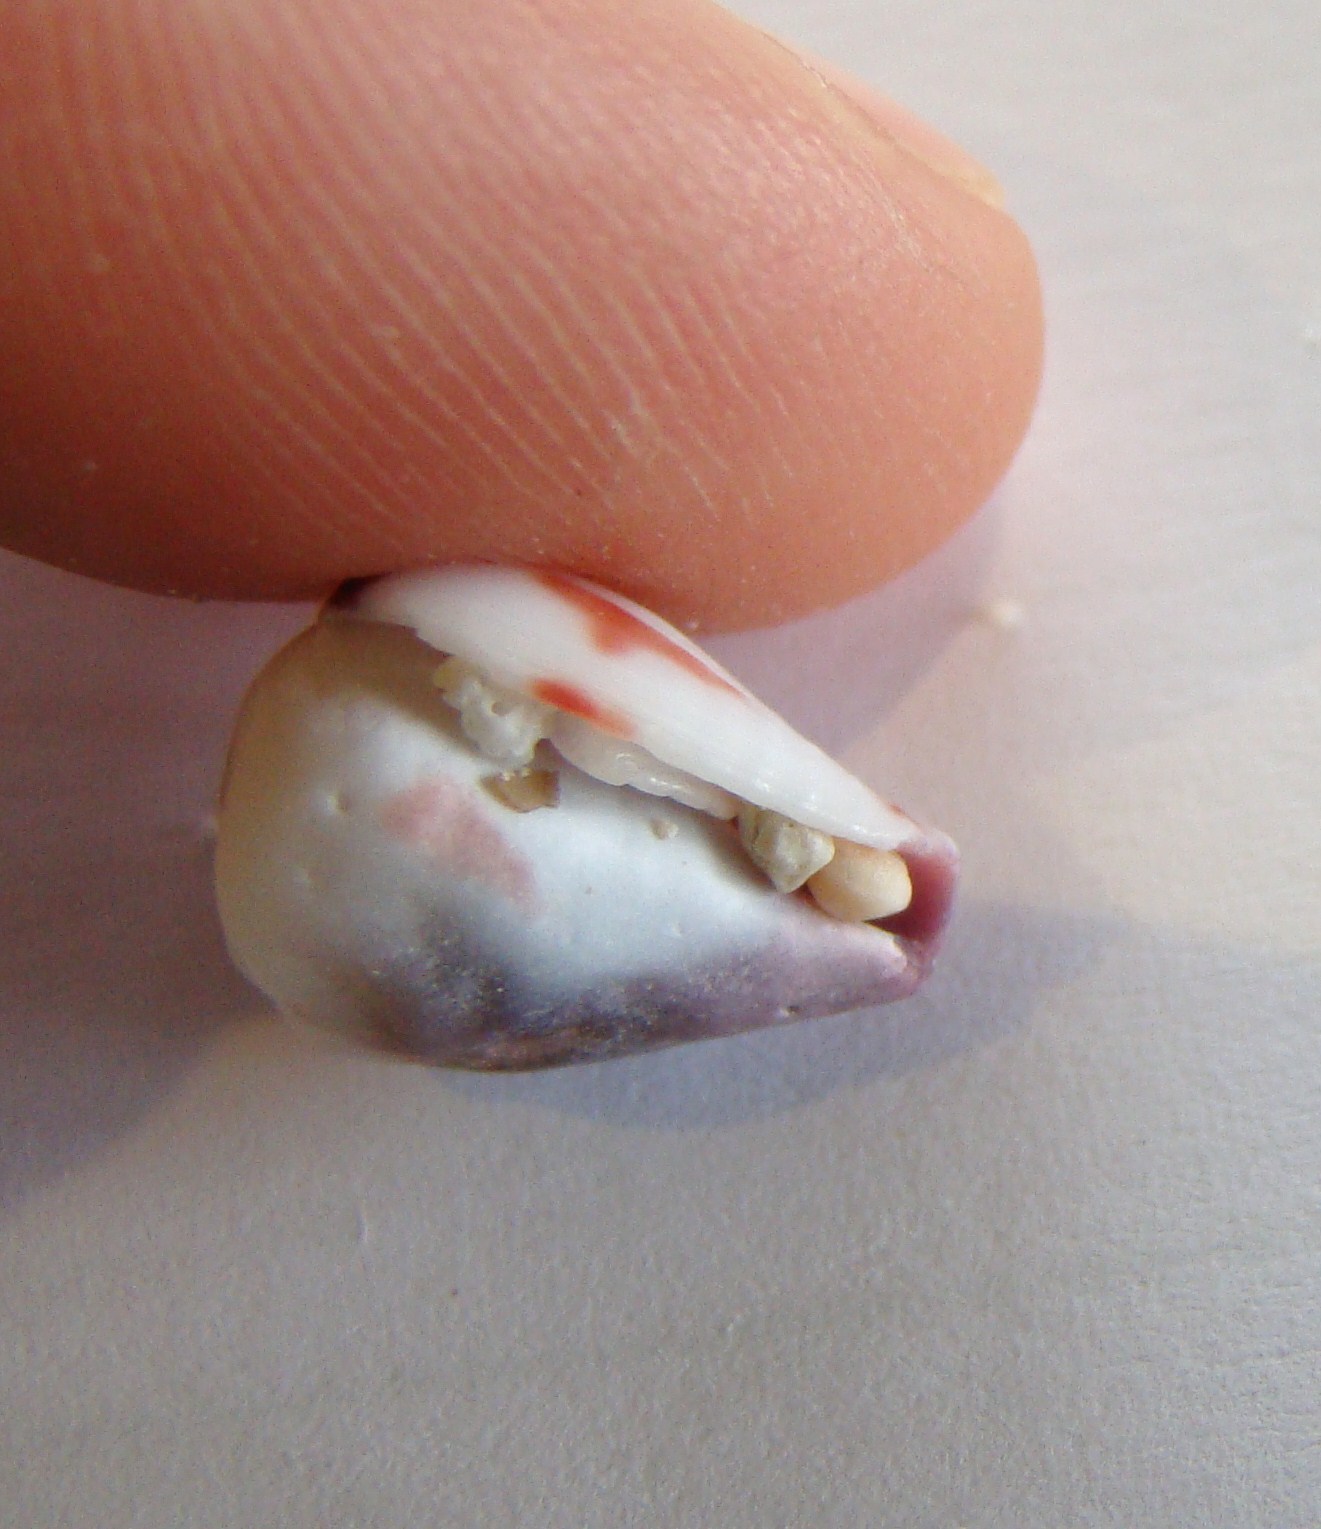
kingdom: Animalia
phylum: Mollusca
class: Gastropoda
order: Neogastropoda
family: Conidae
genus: Conus
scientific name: Conus sponsalis
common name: Sponsal cone
